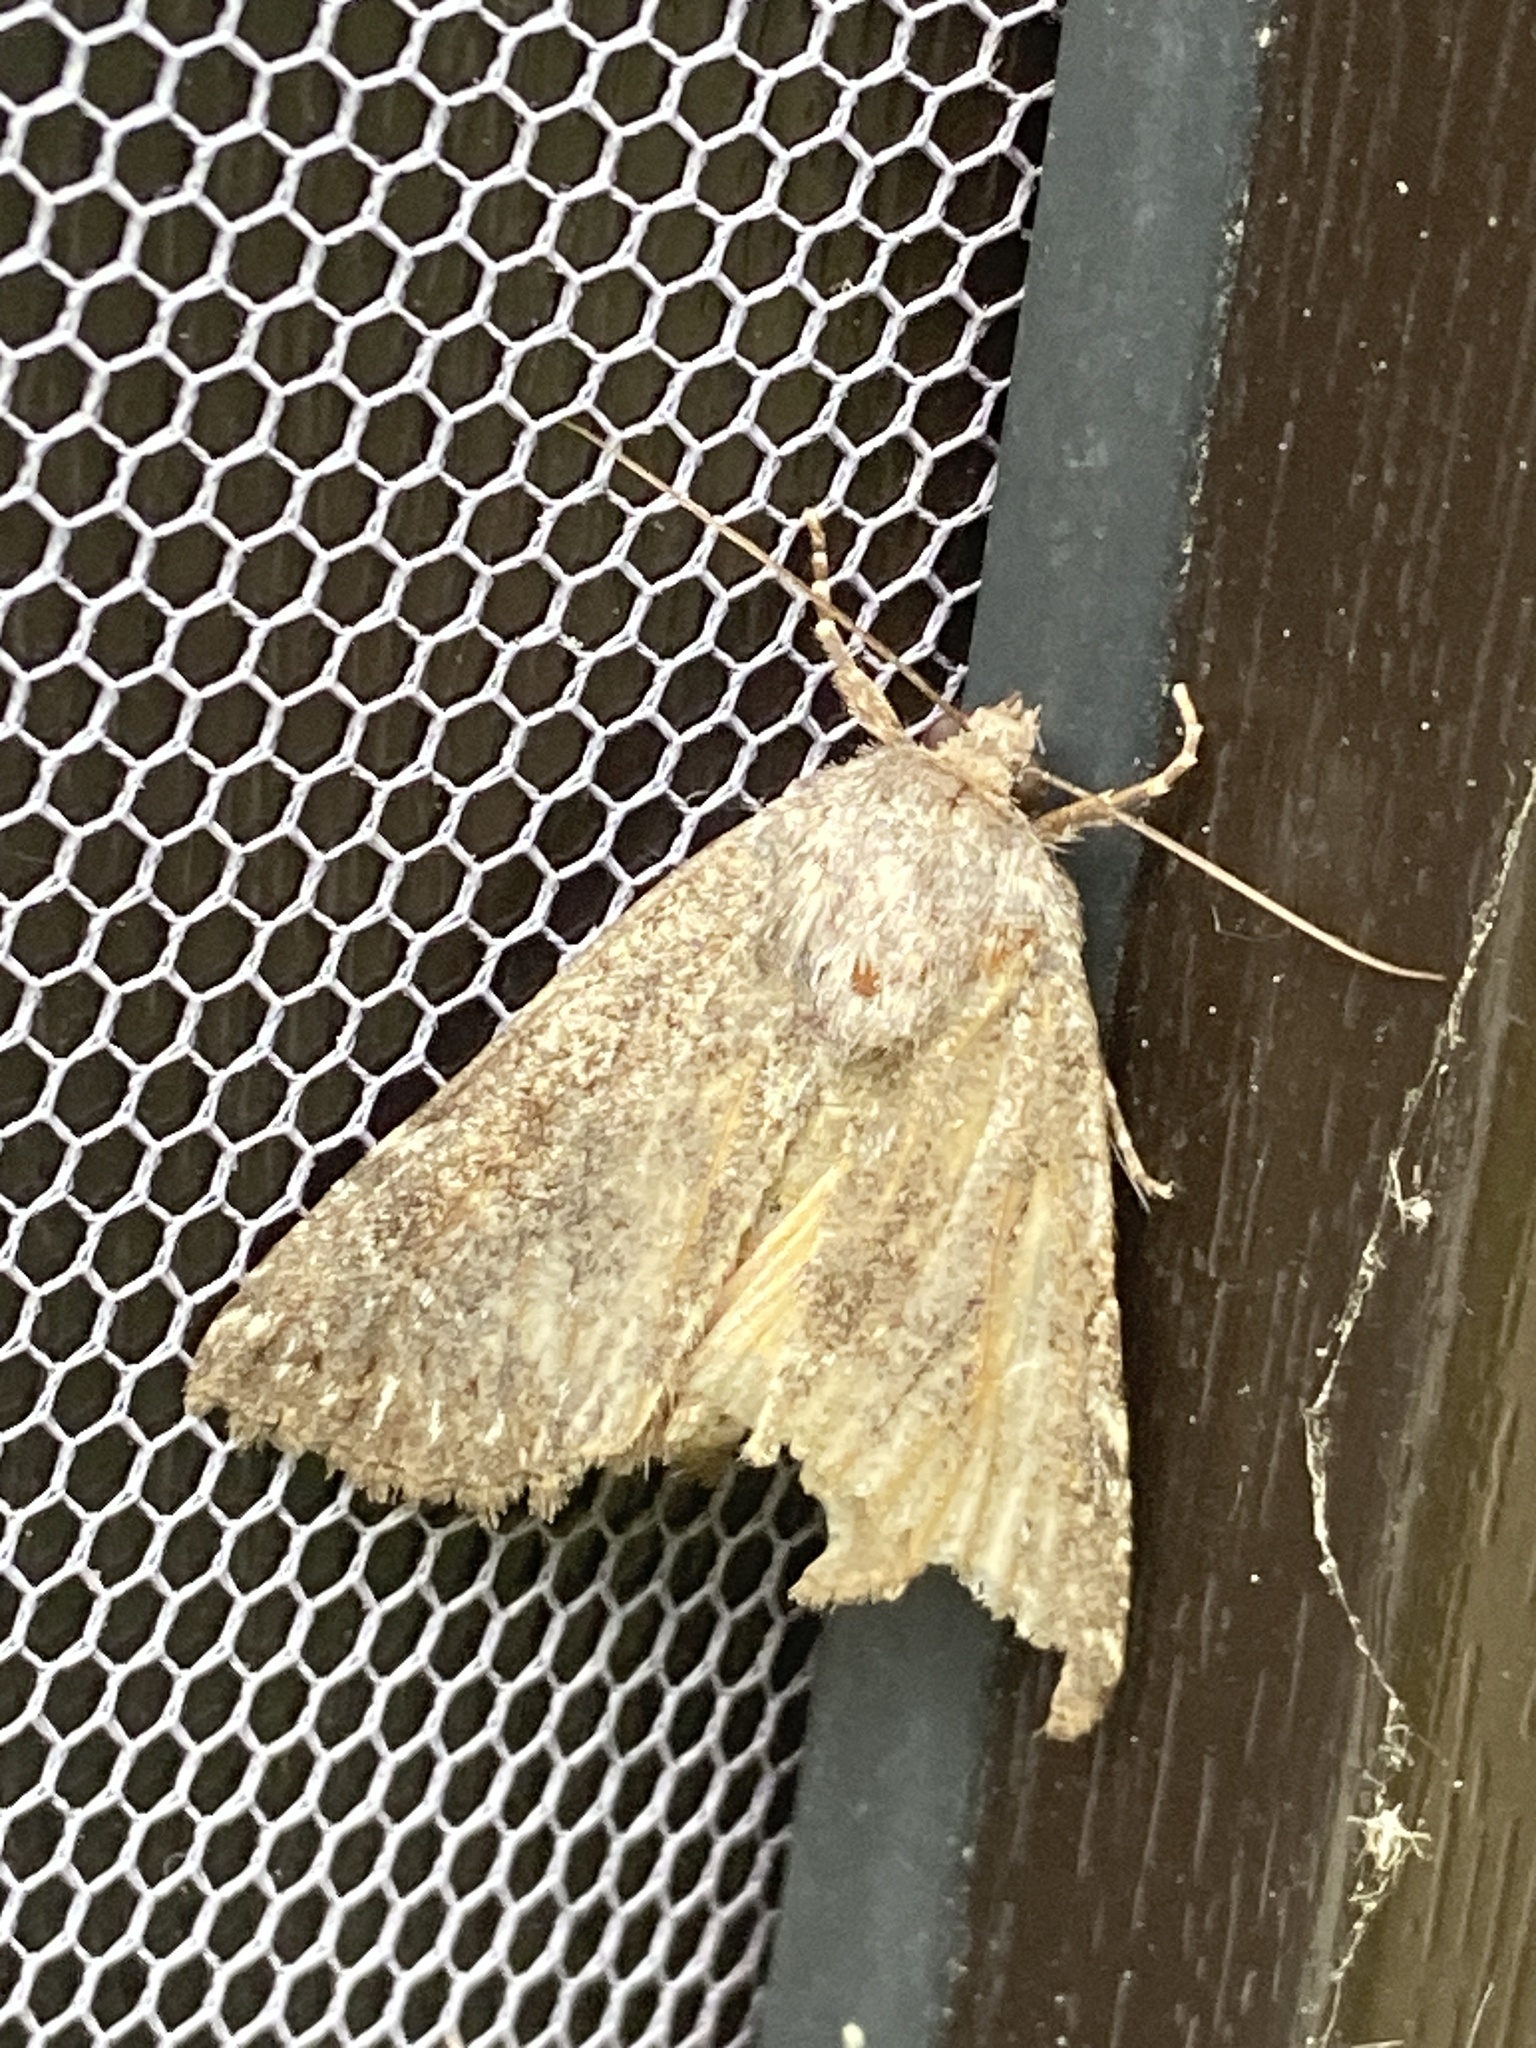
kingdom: Animalia
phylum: Arthropoda
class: Insecta
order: Lepidoptera
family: Noctuidae
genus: Thalpophila
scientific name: Thalpophila matura
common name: Straw underwing
